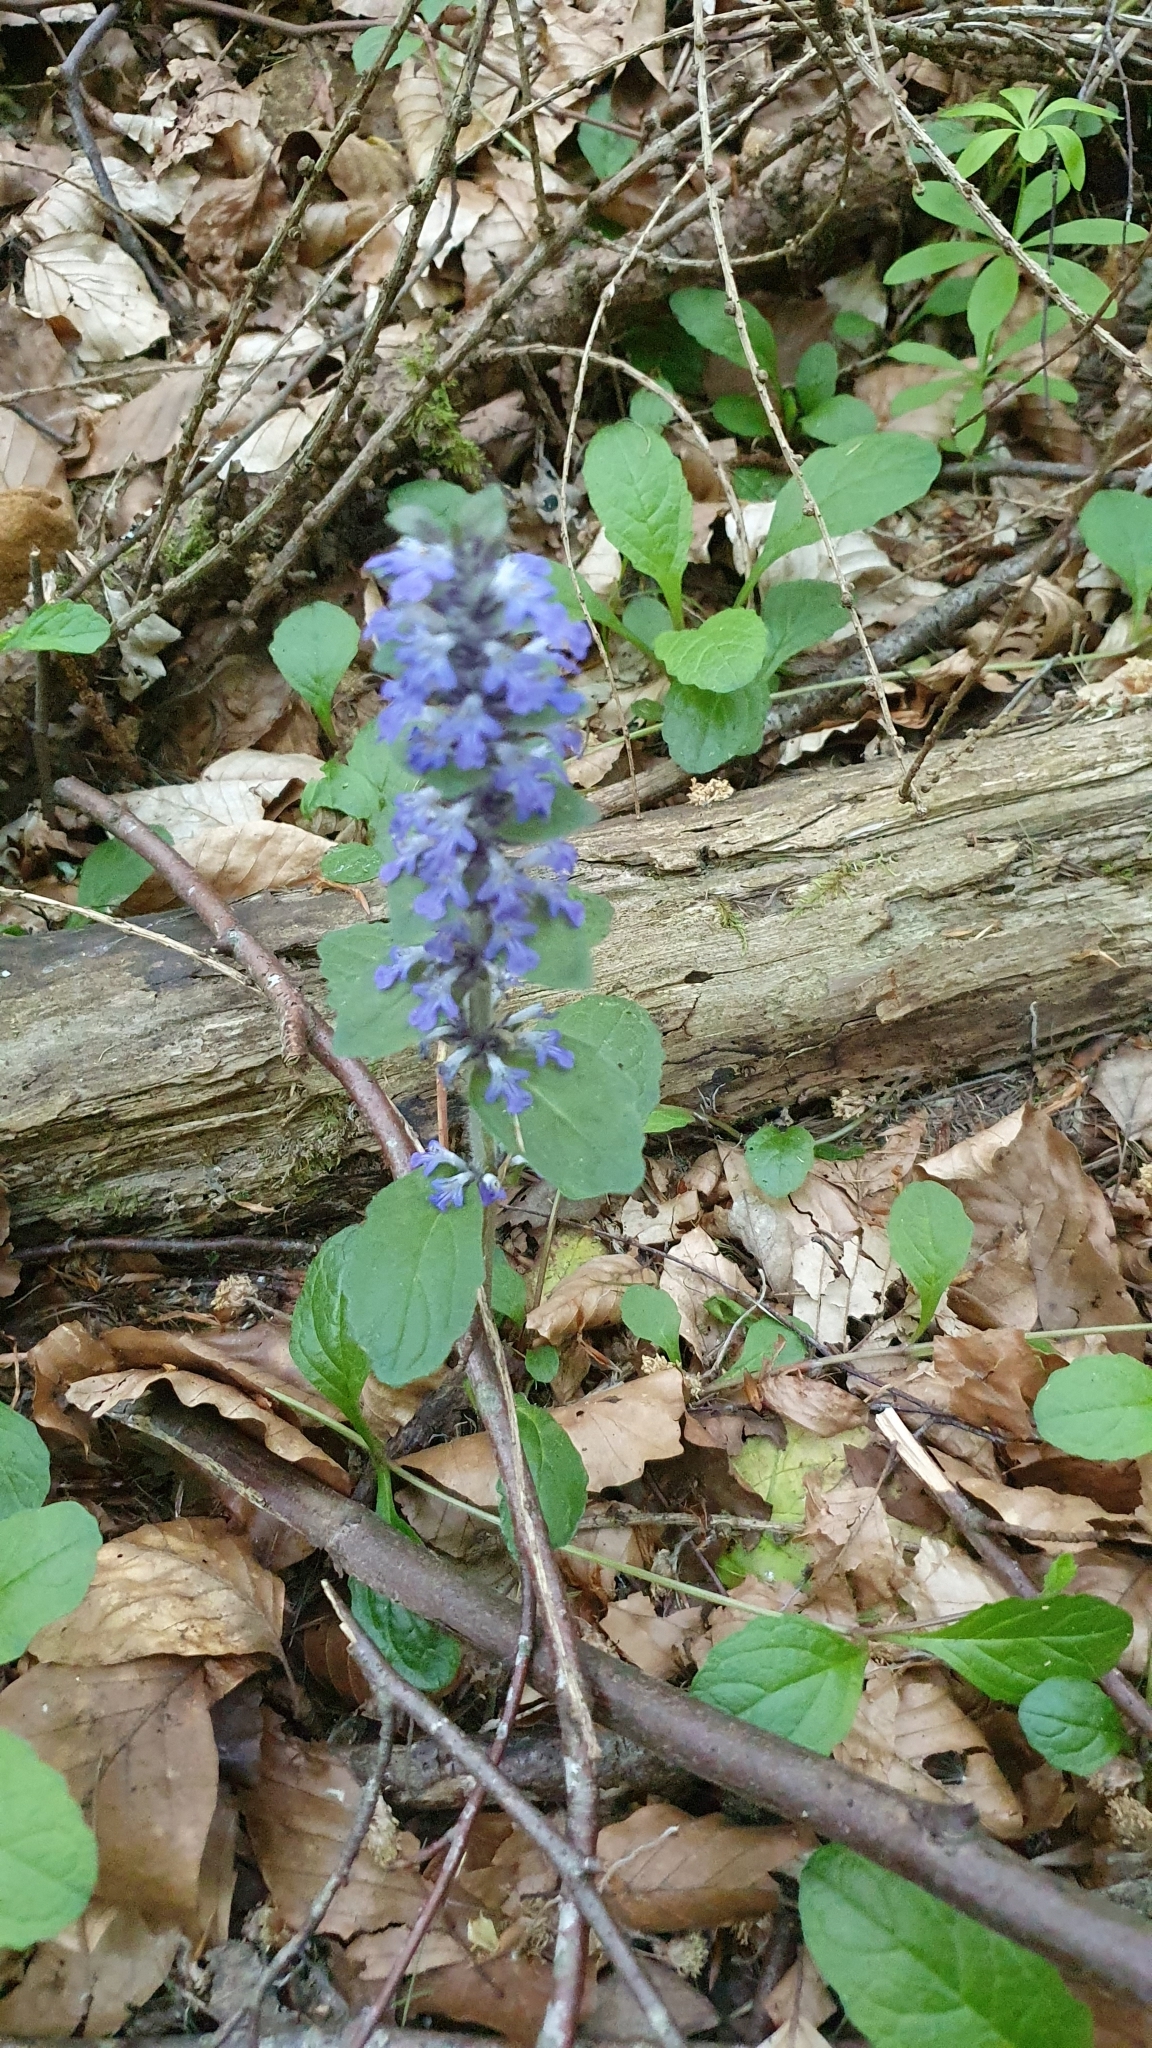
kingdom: Plantae
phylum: Tracheophyta
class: Magnoliopsida
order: Lamiales
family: Lamiaceae
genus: Ajuga
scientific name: Ajuga reptans
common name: Bugle
